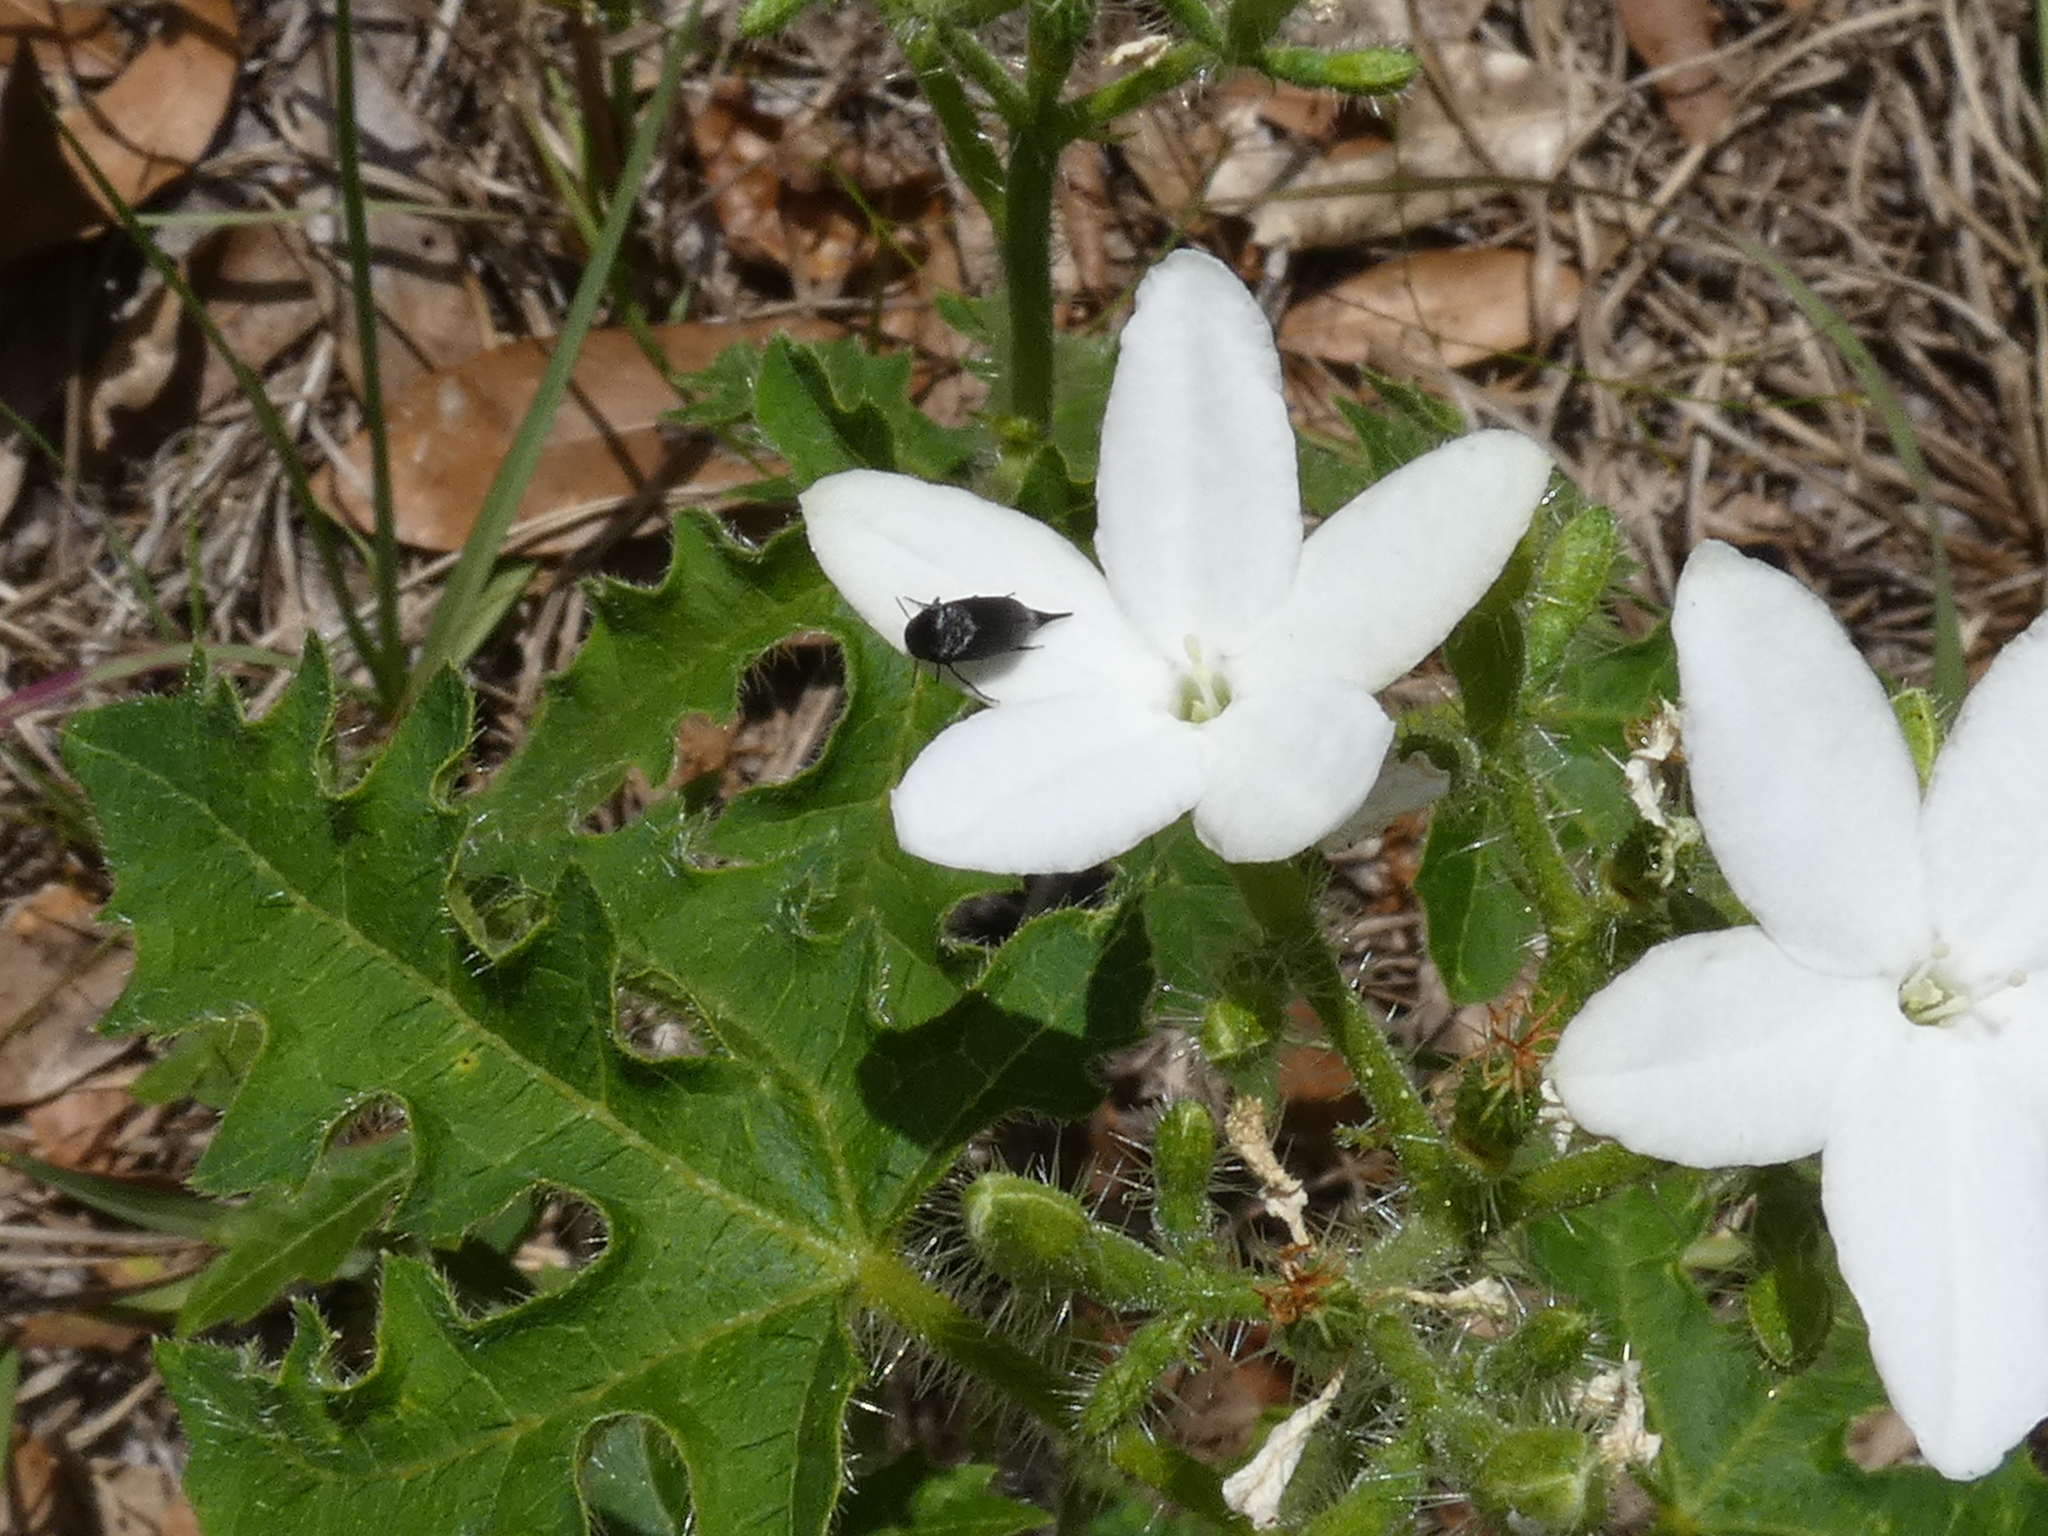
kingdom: Plantae
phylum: Tracheophyta
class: Magnoliopsida
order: Malpighiales
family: Euphorbiaceae
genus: Cnidoscolus
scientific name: Cnidoscolus stimulosus
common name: Bull-nettle
